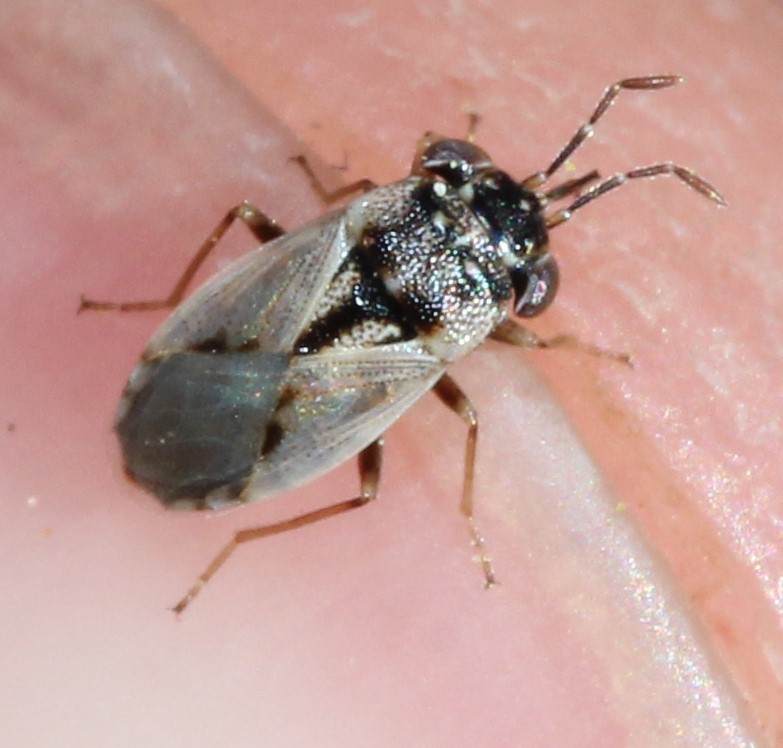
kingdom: Animalia
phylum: Arthropoda
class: Insecta
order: Hemiptera
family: Geocoridae
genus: Geocoris
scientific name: Geocoris pallens
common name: Big-eyed bug
